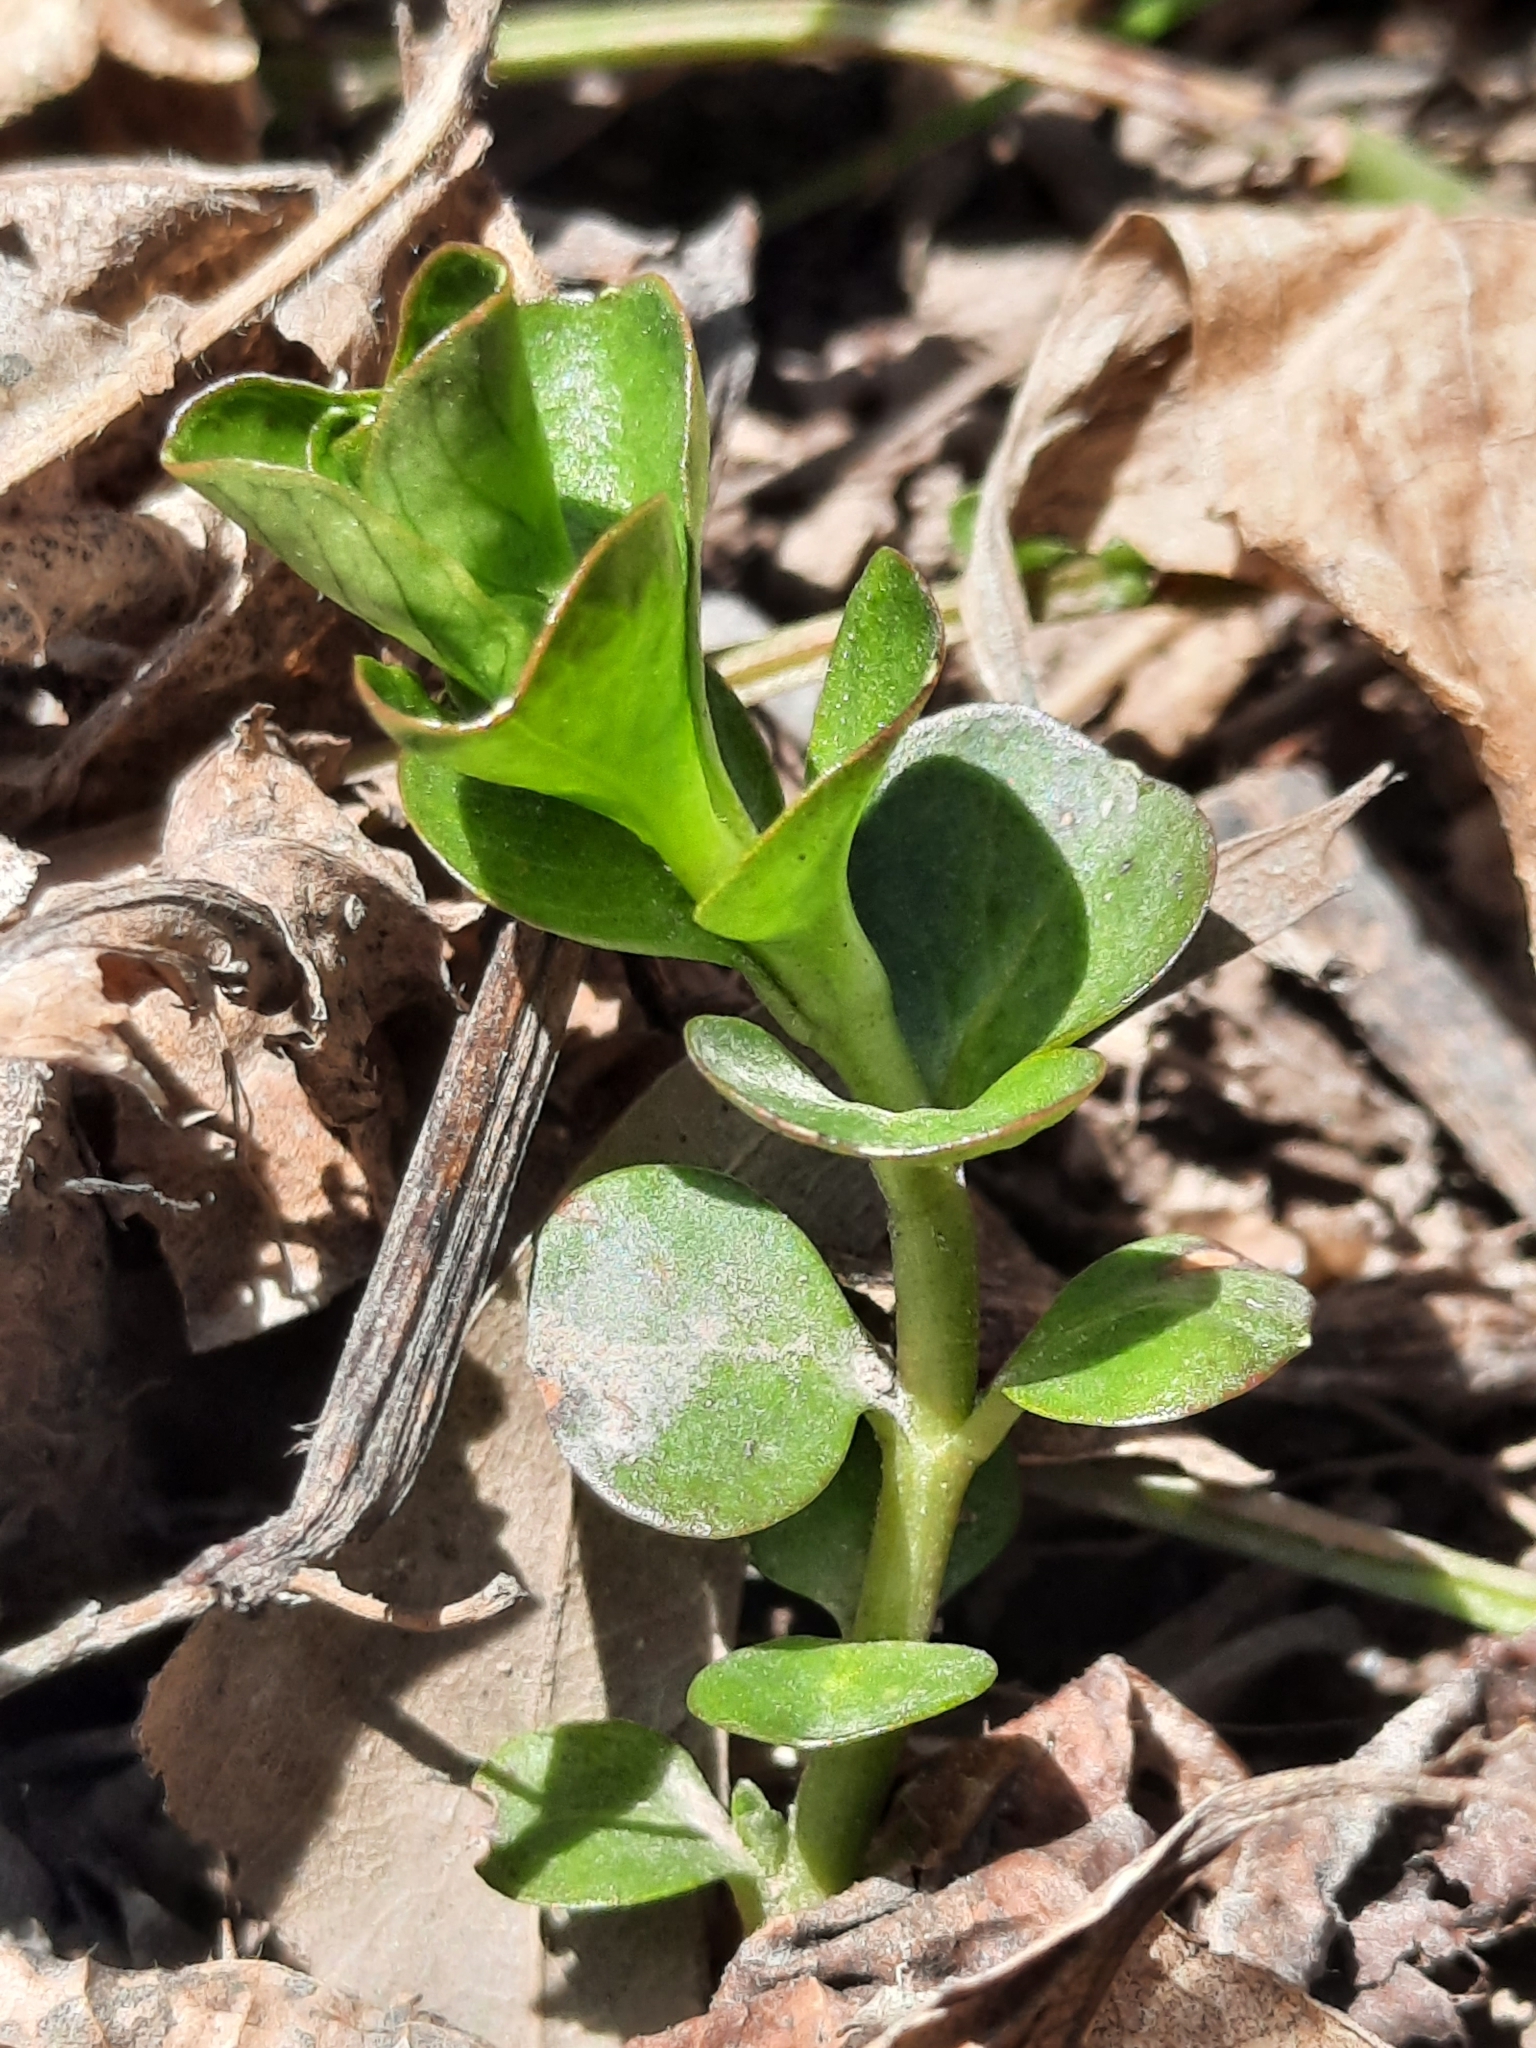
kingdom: Plantae
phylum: Tracheophyta
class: Magnoliopsida
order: Ericales
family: Primulaceae
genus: Lysimachia
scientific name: Lysimachia nummularia
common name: Moneywort
